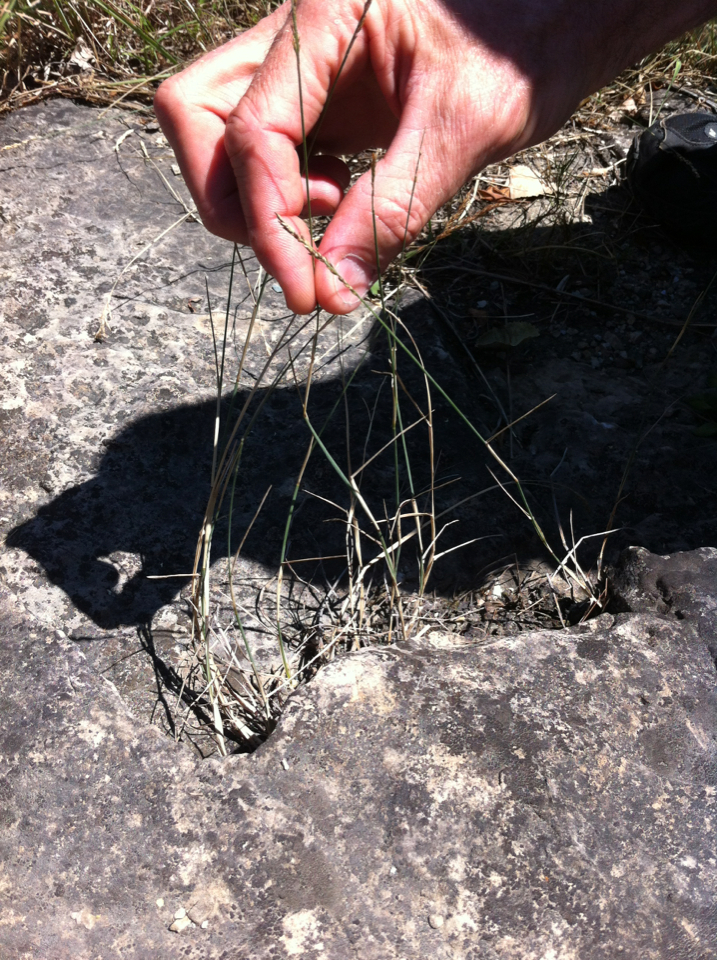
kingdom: Plantae
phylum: Tracheophyta
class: Liliopsida
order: Poales
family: Poaceae
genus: Poa
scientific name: Poa compressa
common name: Canada bluegrass
